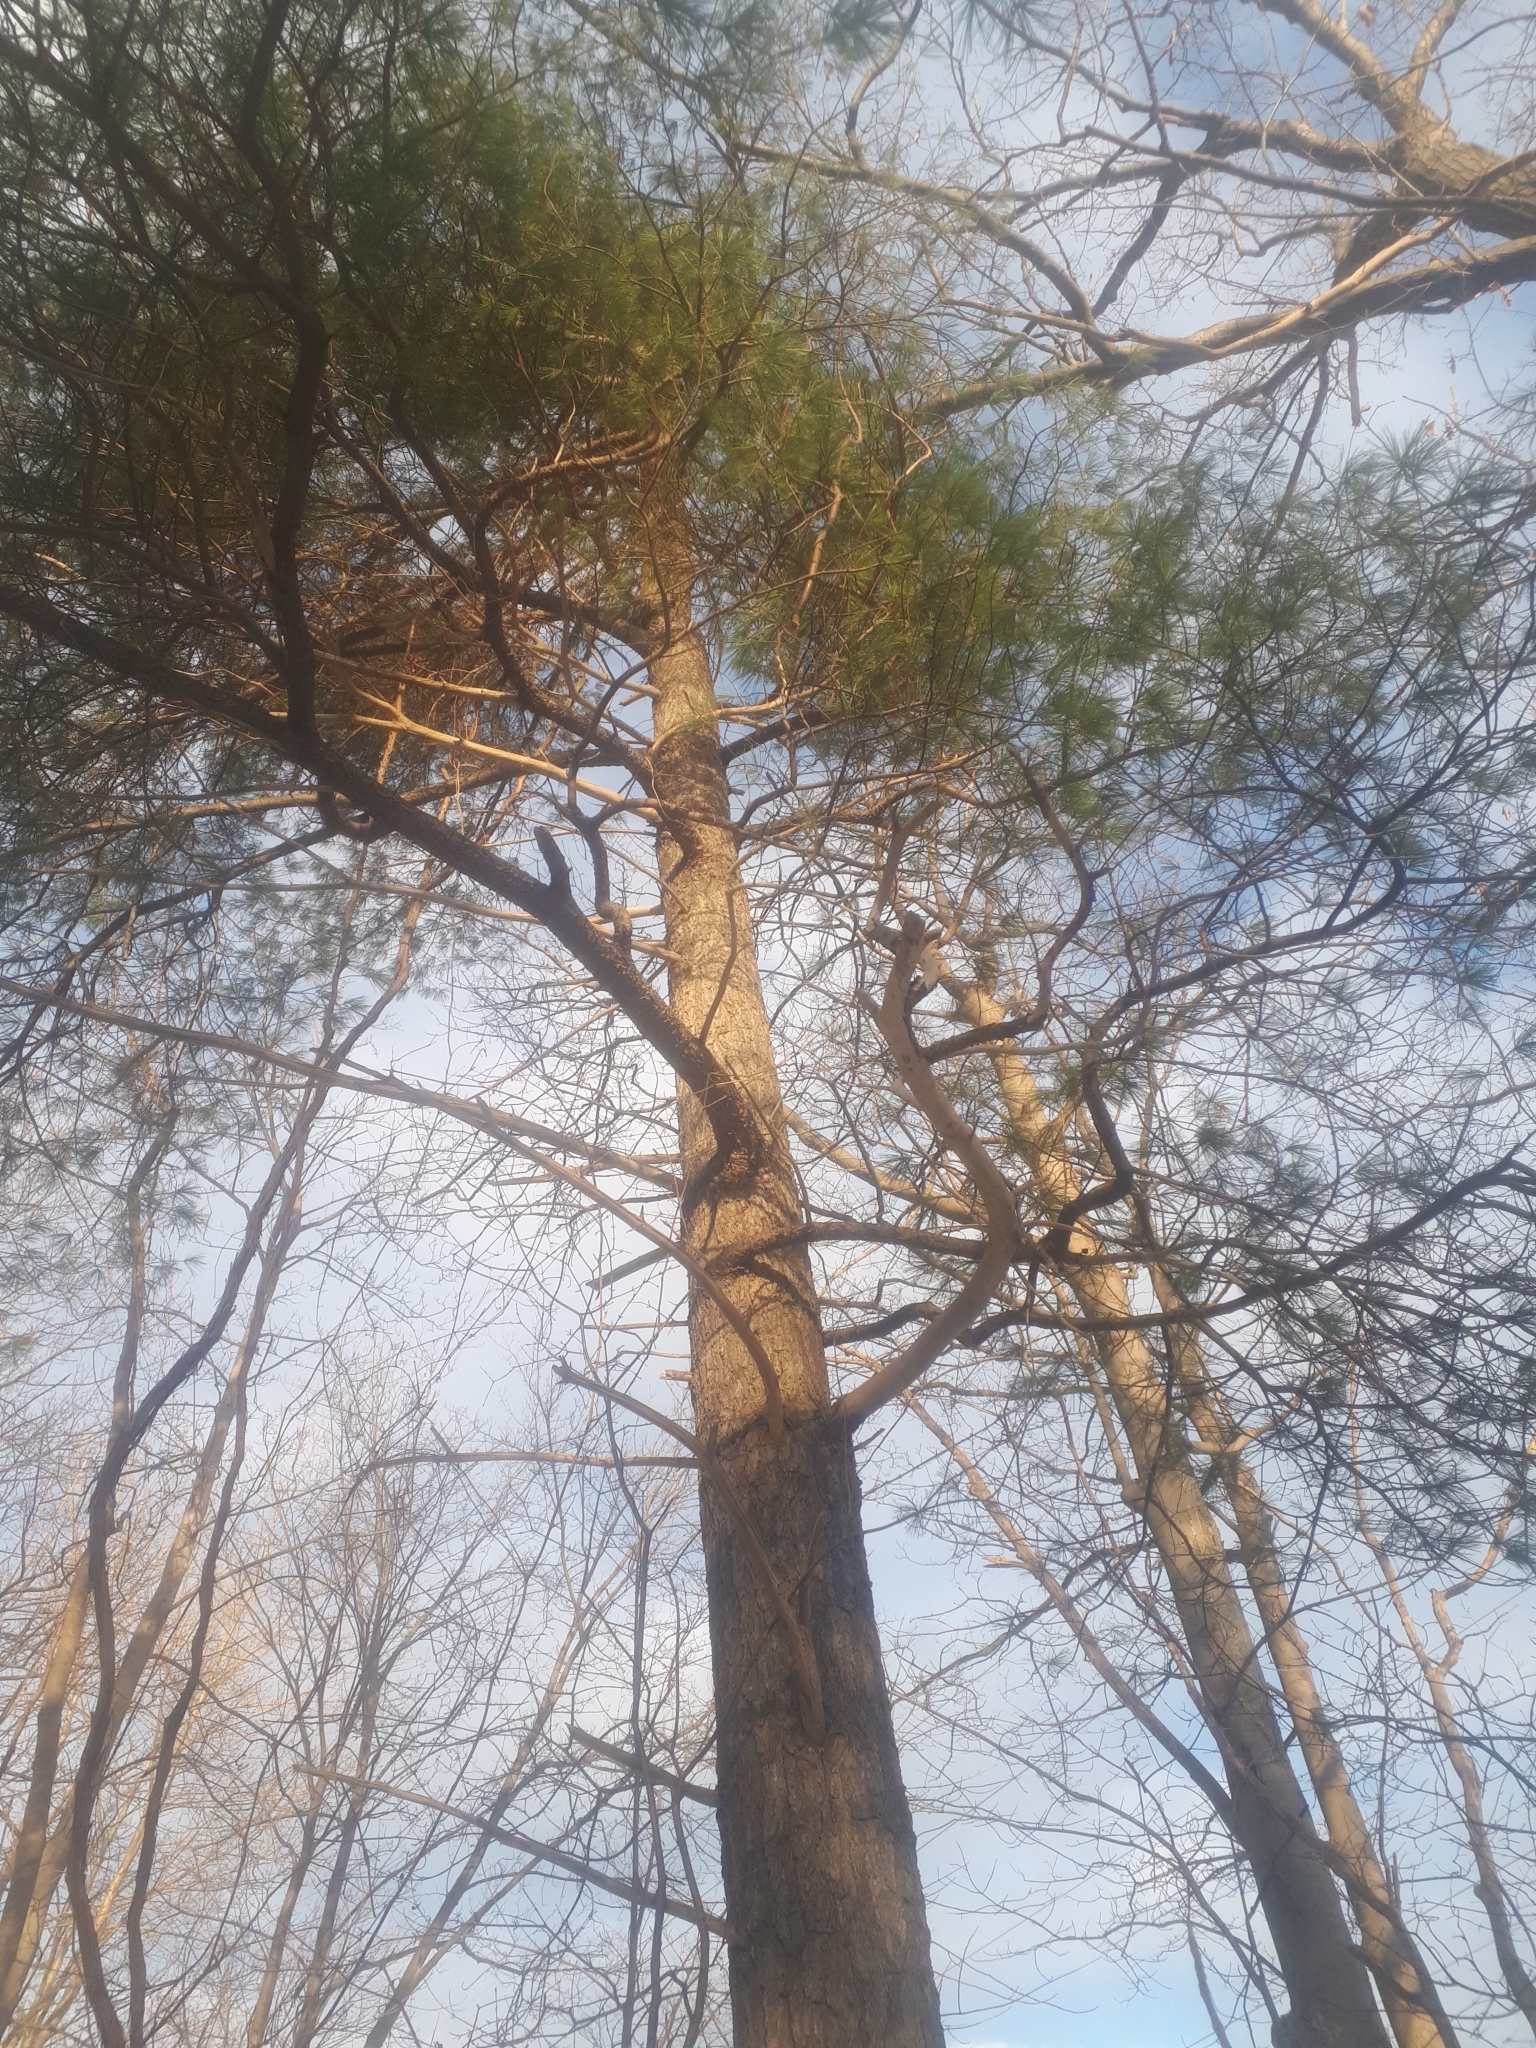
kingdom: Plantae
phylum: Tracheophyta
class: Pinopsida
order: Pinales
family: Pinaceae
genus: Pinus
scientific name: Pinus strobus
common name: Weymouth pine
